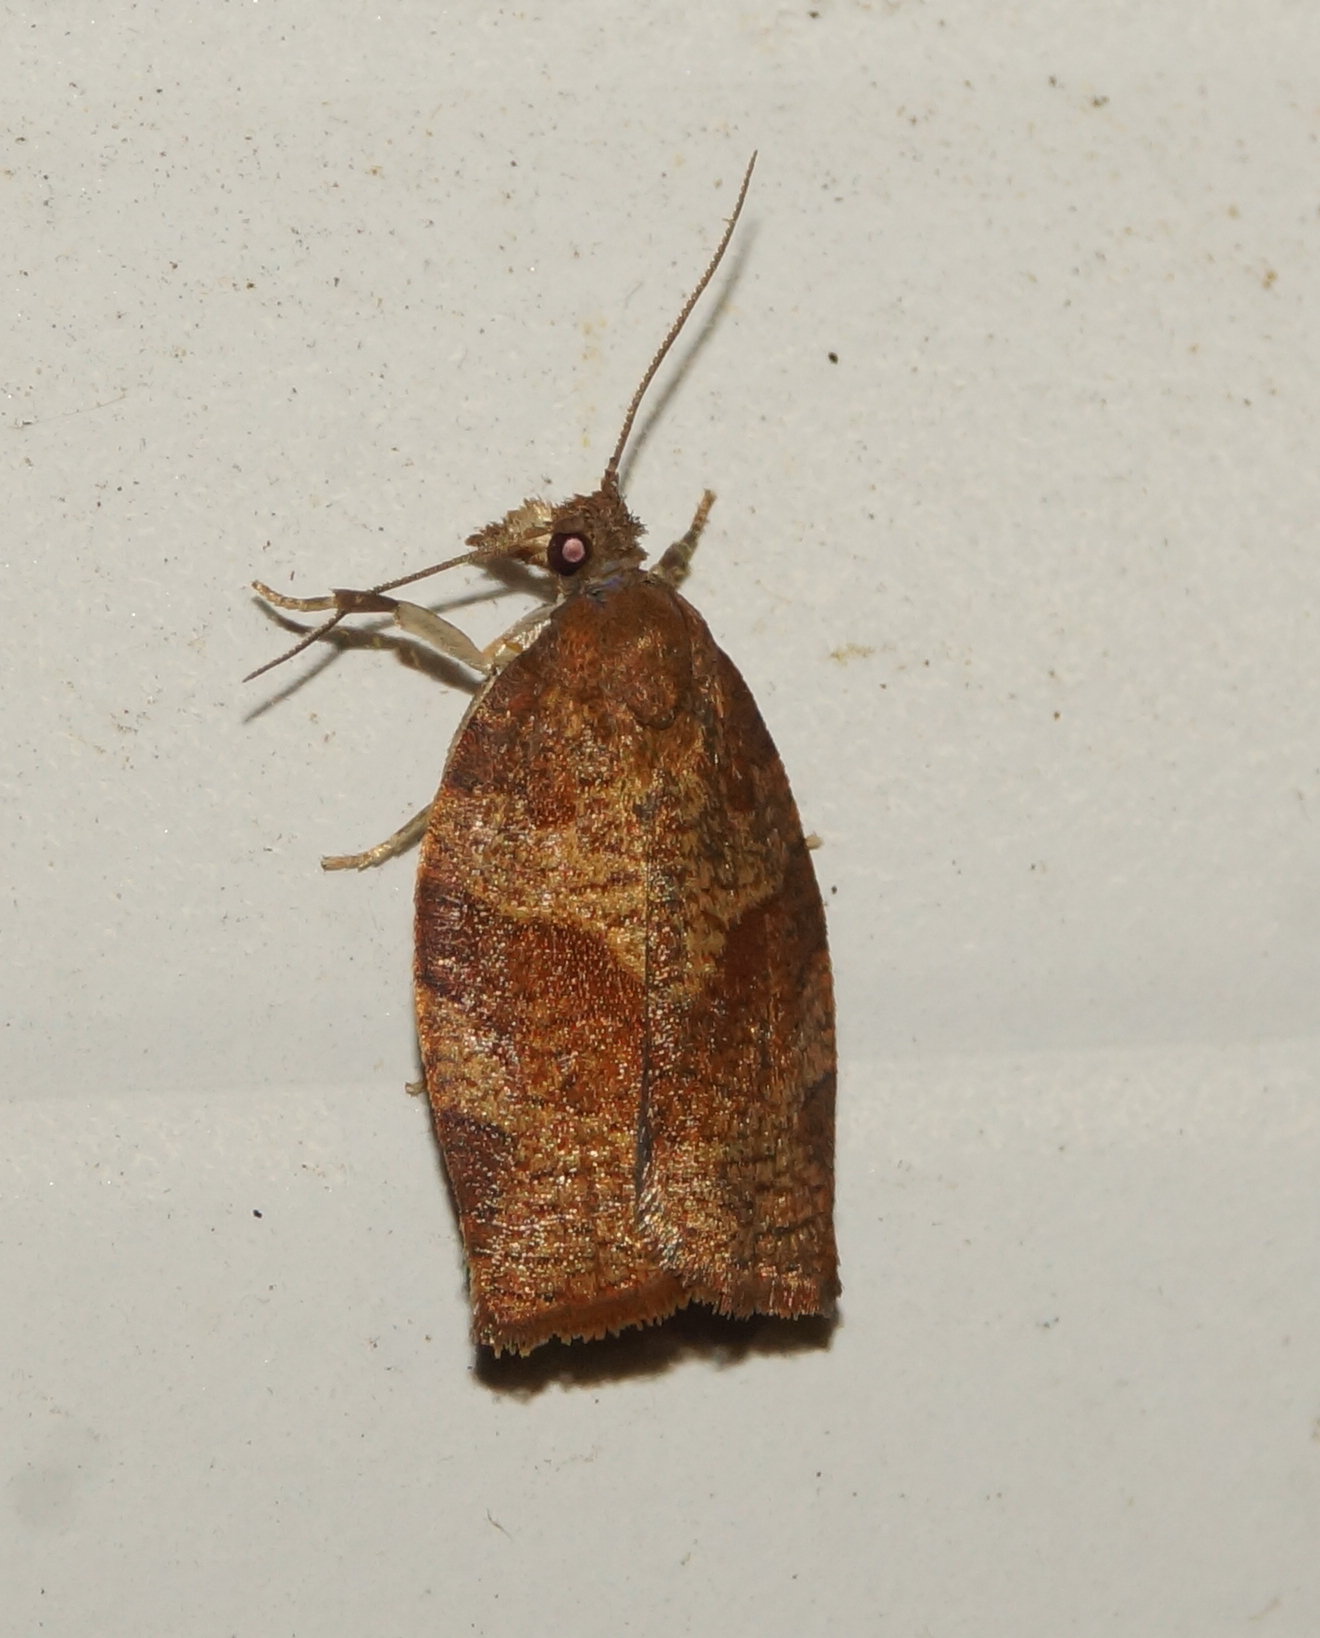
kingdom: Animalia
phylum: Arthropoda
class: Insecta
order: Lepidoptera
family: Tortricidae
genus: Pandemis
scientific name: Pandemis heparana
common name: Dark fruit-tree tortrix
